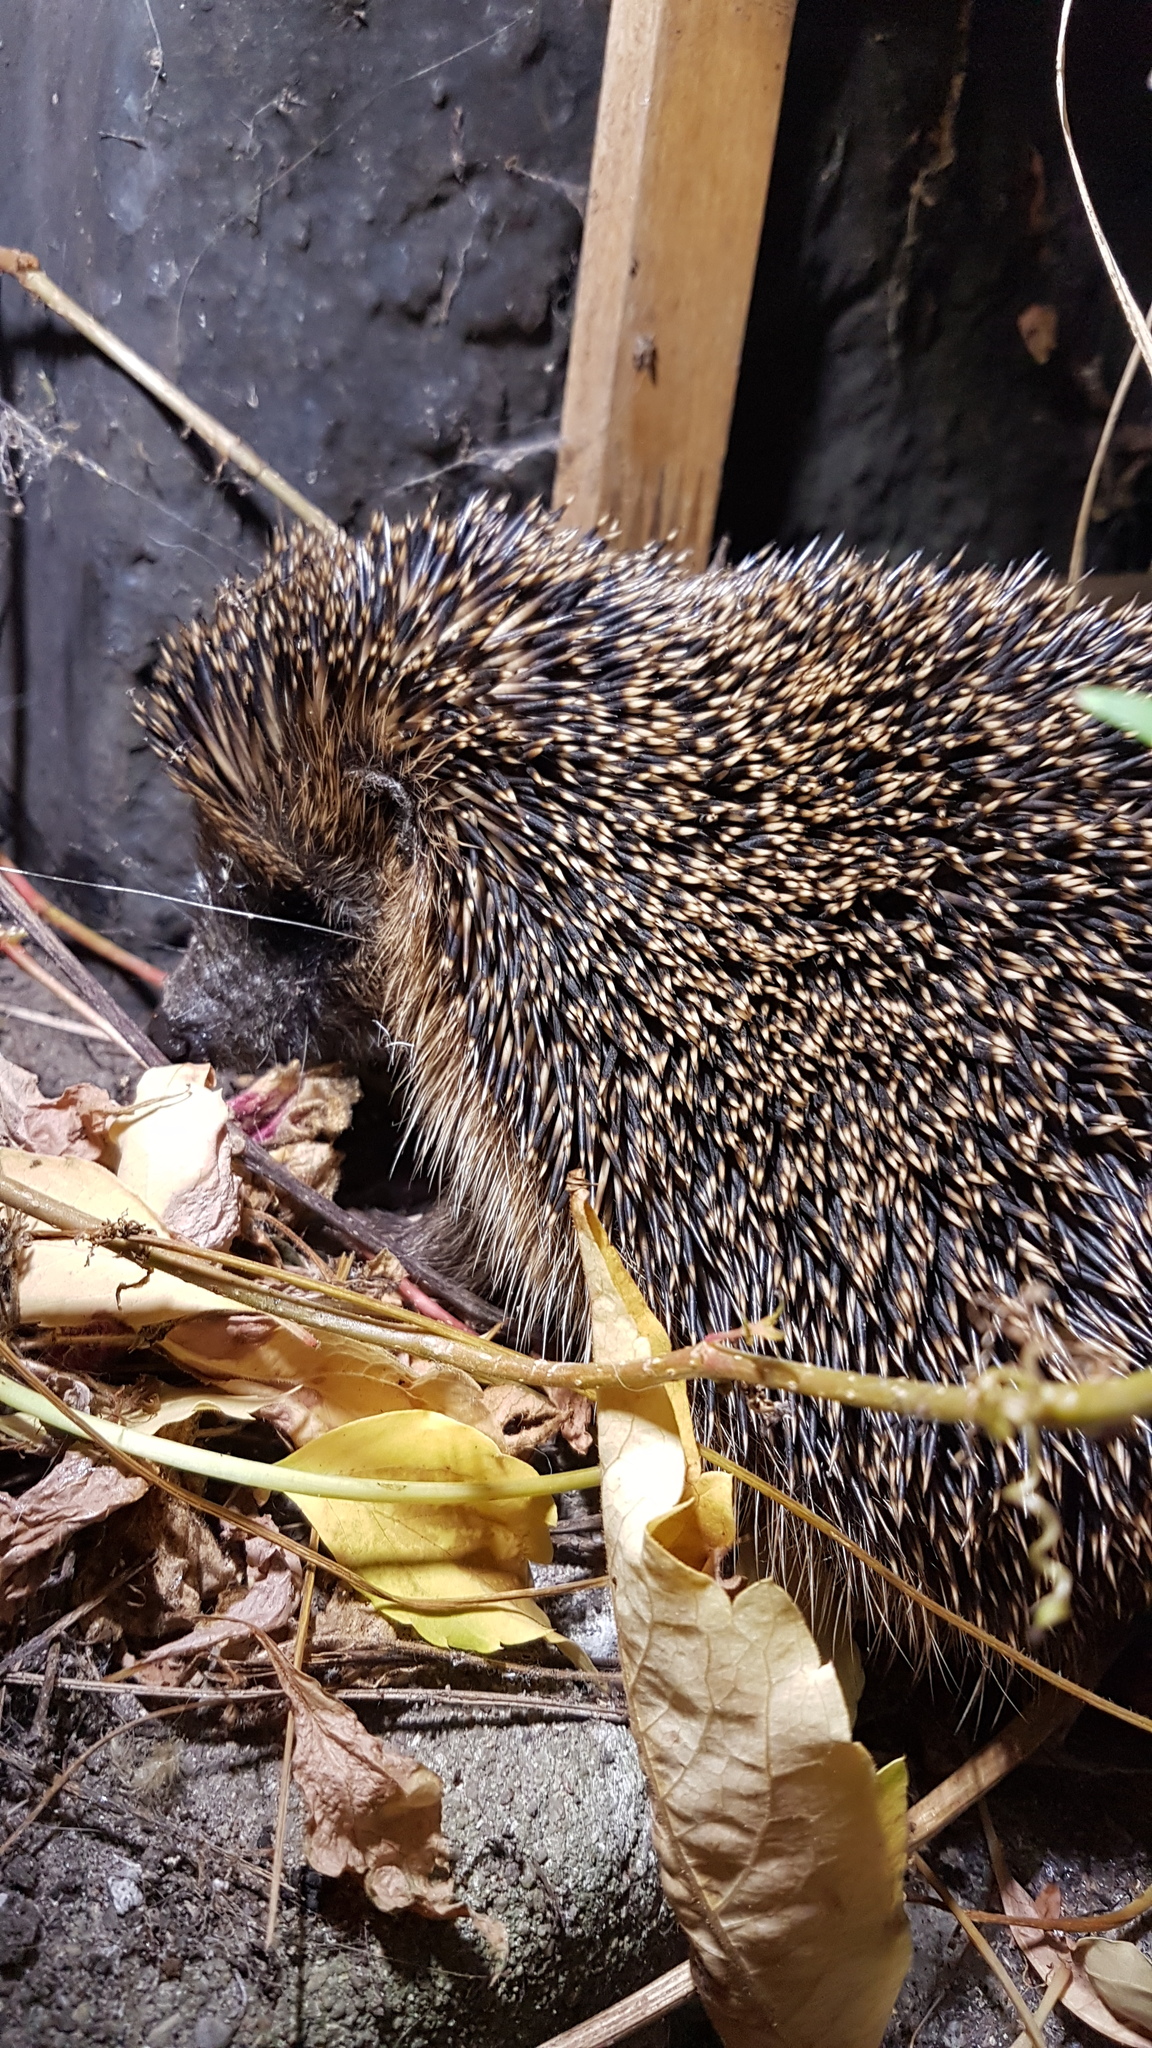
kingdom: Animalia
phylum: Chordata
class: Mammalia
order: Erinaceomorpha
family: Erinaceidae
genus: Erinaceus
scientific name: Erinaceus europaeus
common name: West european hedgehog
